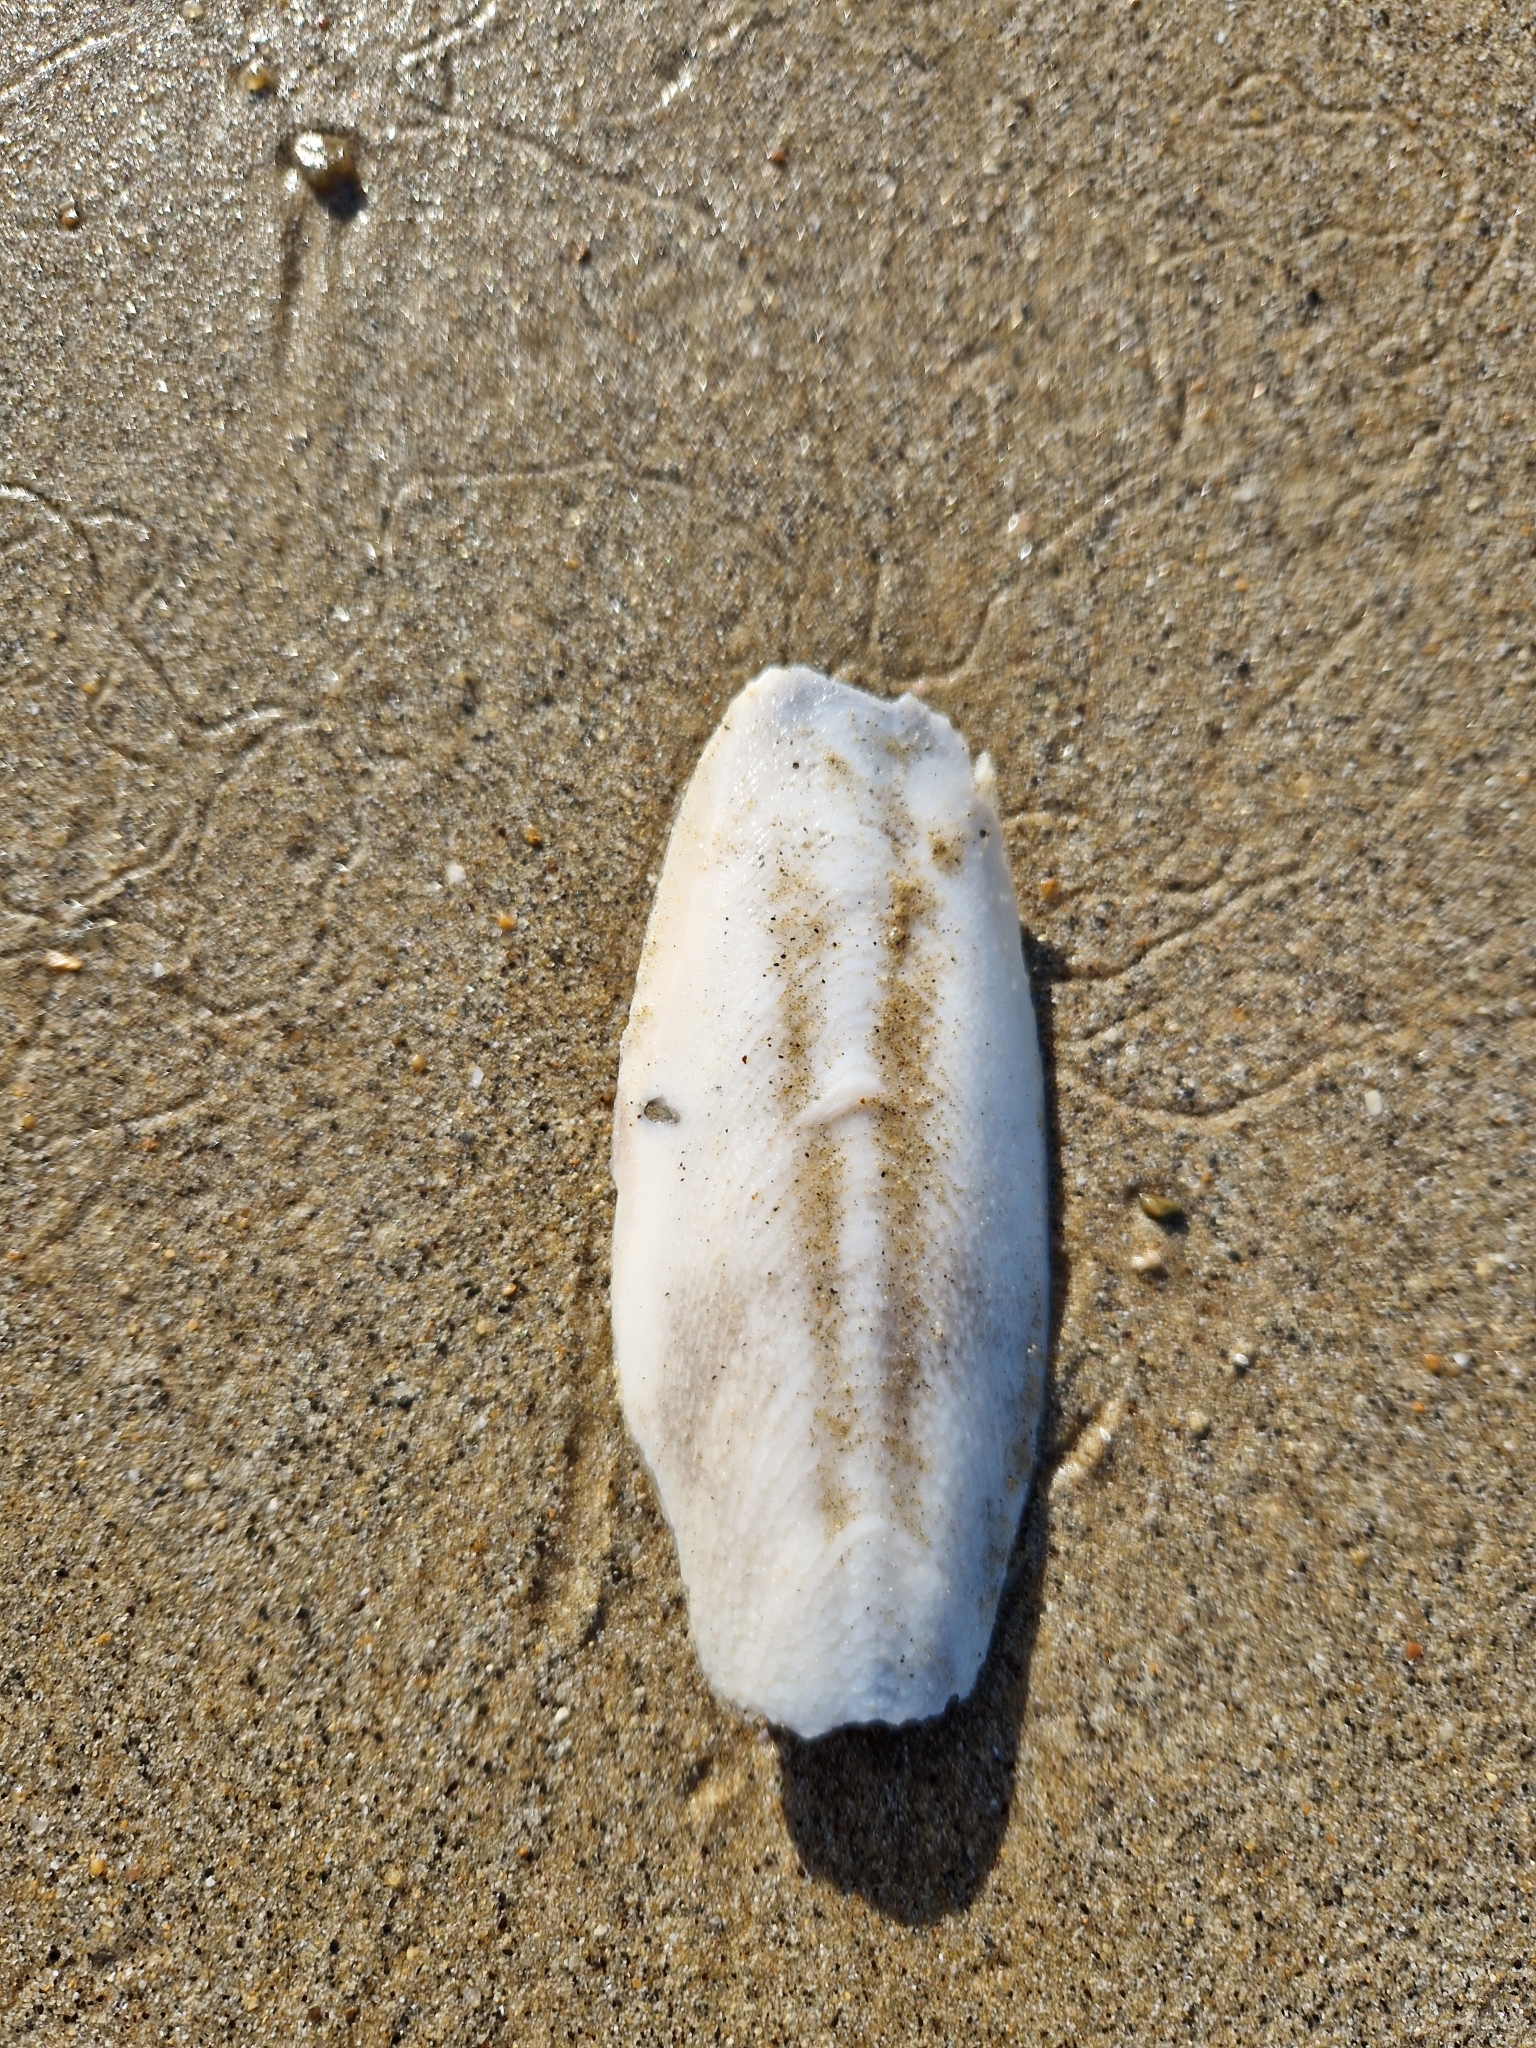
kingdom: Animalia
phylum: Mollusca
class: Cephalopoda
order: Sepiida
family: Sepiidae
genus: Sepia
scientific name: Sepia officinalis
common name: Common cuttlefish
